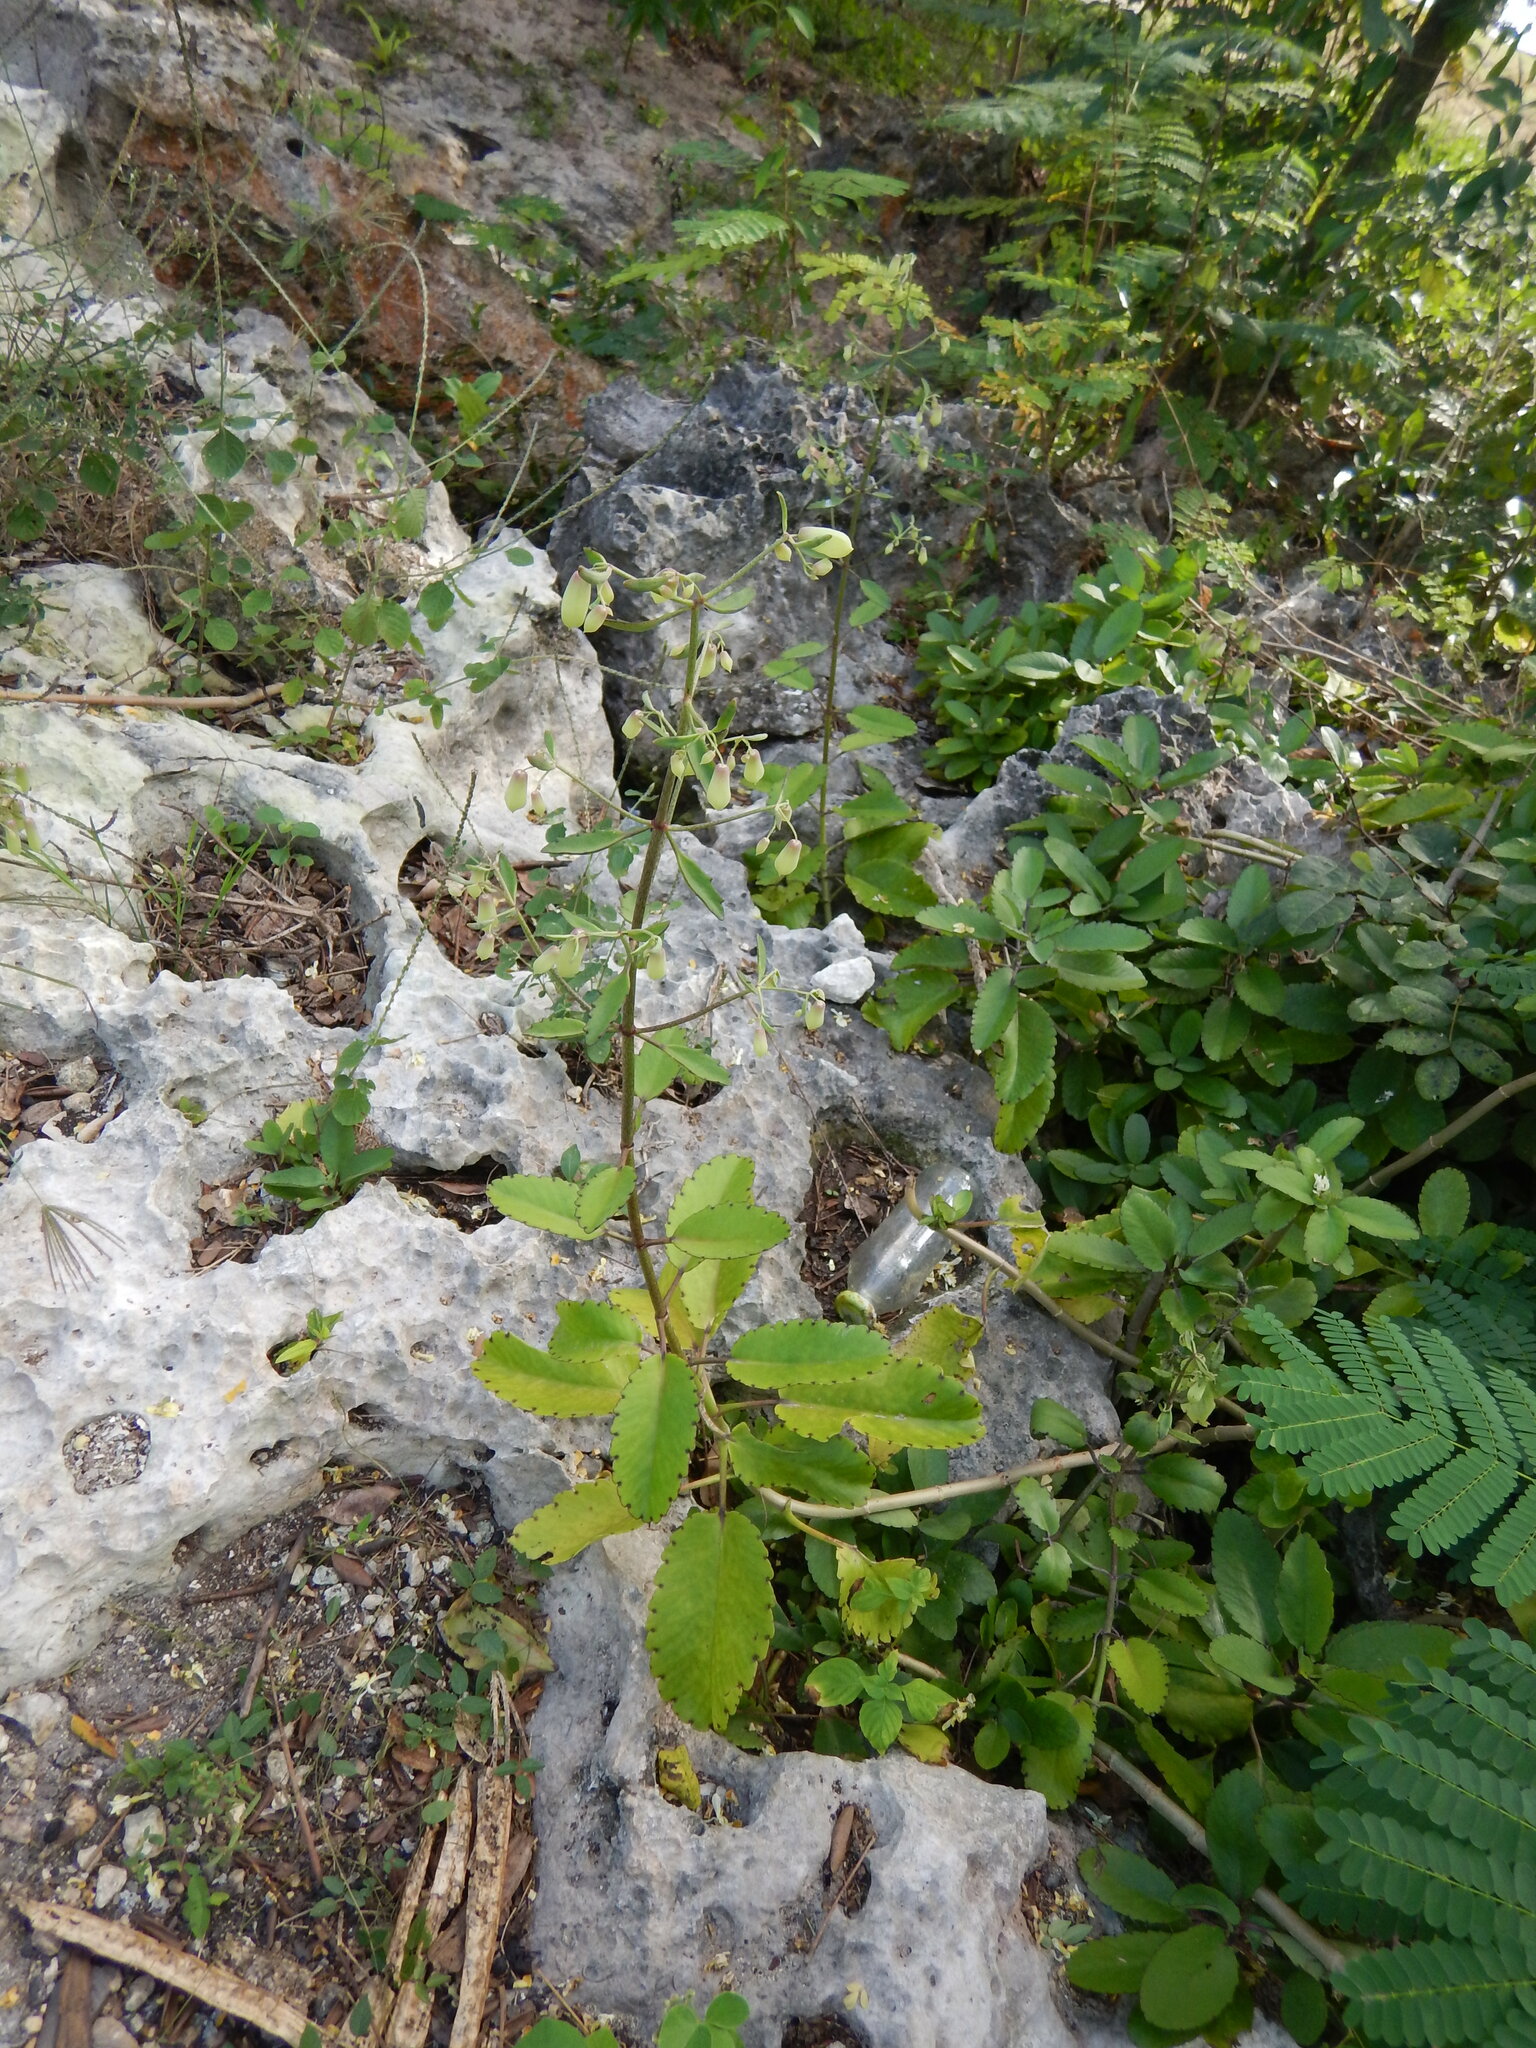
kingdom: Plantae
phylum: Tracheophyta
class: Magnoliopsida
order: Saxifragales
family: Crassulaceae
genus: Kalanchoe
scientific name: Kalanchoe pinnata
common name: Cathedral bells
